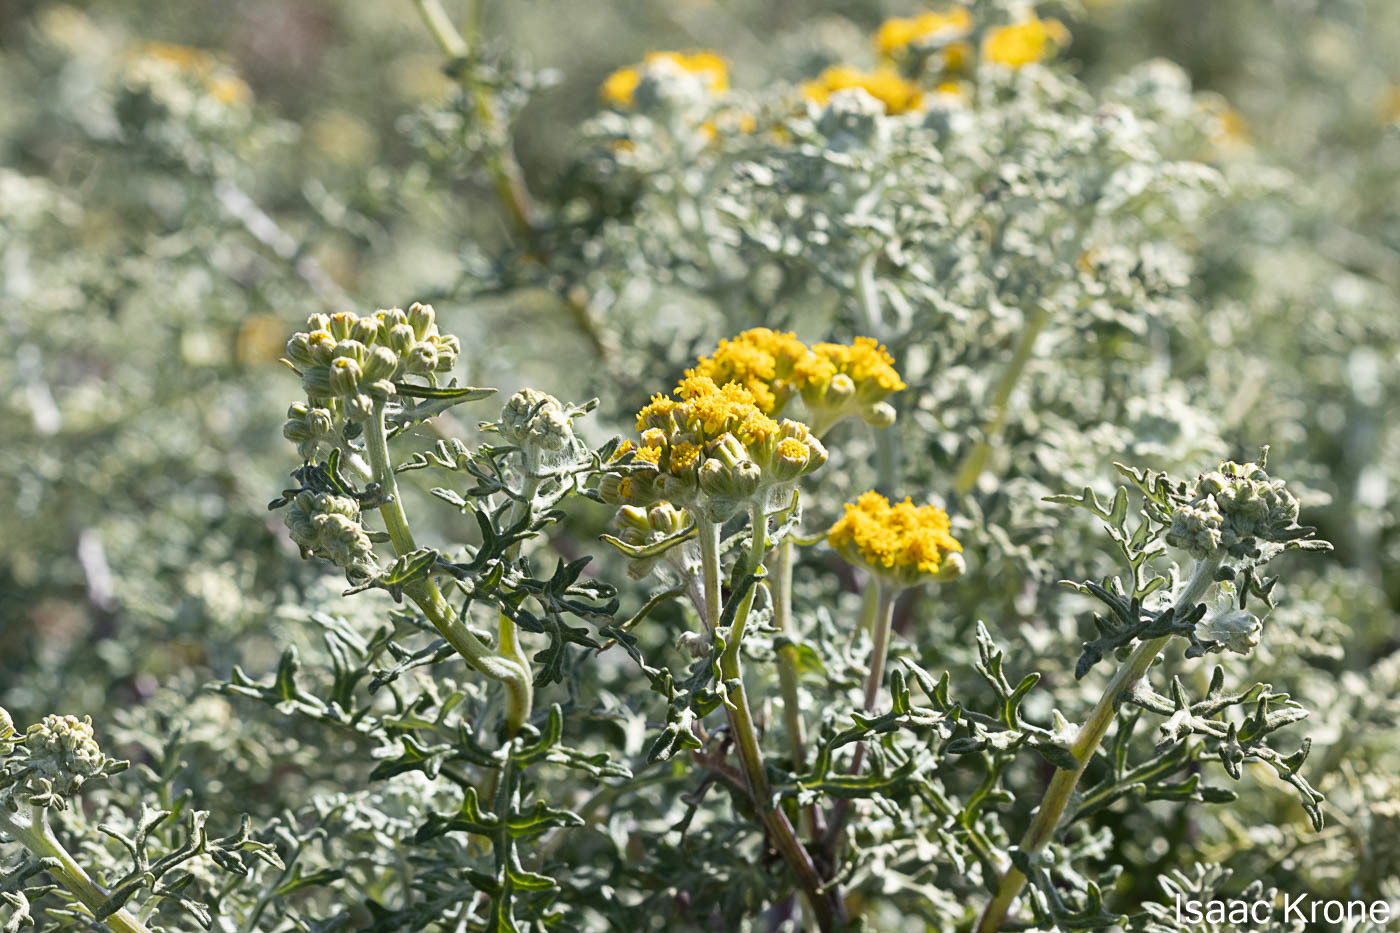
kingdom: Plantae
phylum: Tracheophyta
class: Magnoliopsida
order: Asterales
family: Asteraceae
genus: Eriophyllum
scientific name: Eriophyllum staechadifolium
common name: Lizardtail
